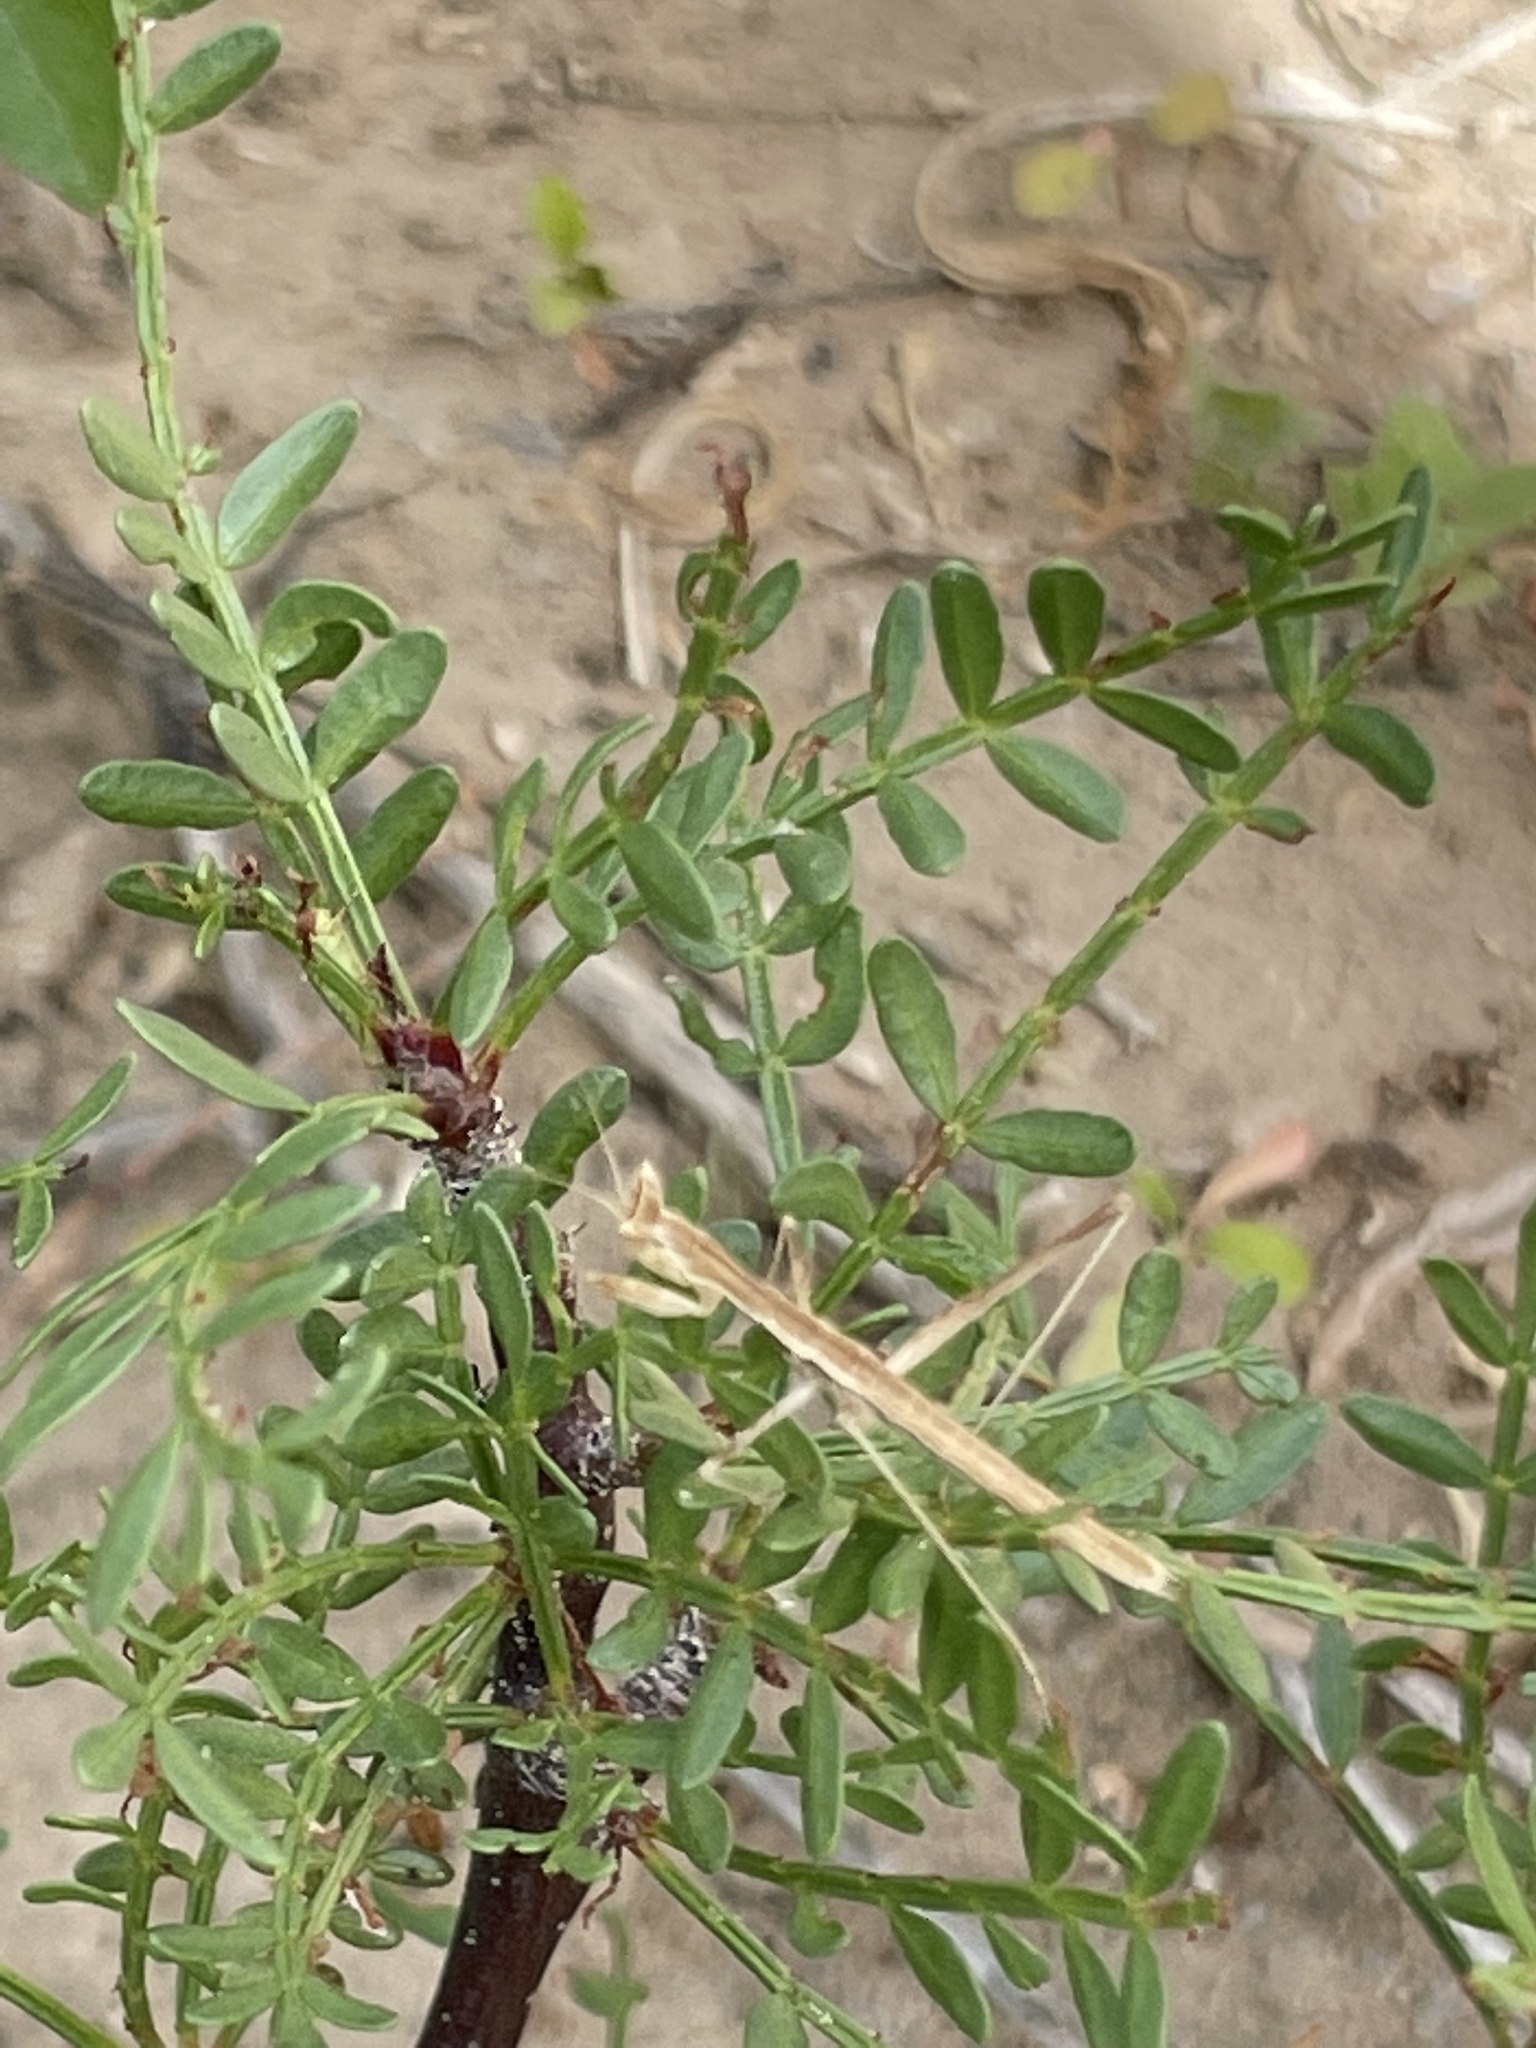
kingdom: Plantae
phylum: Tracheophyta
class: Magnoliopsida
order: Sapindales
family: Burseraceae
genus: Bursera
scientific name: Bursera microphylla
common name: Elephant tree
